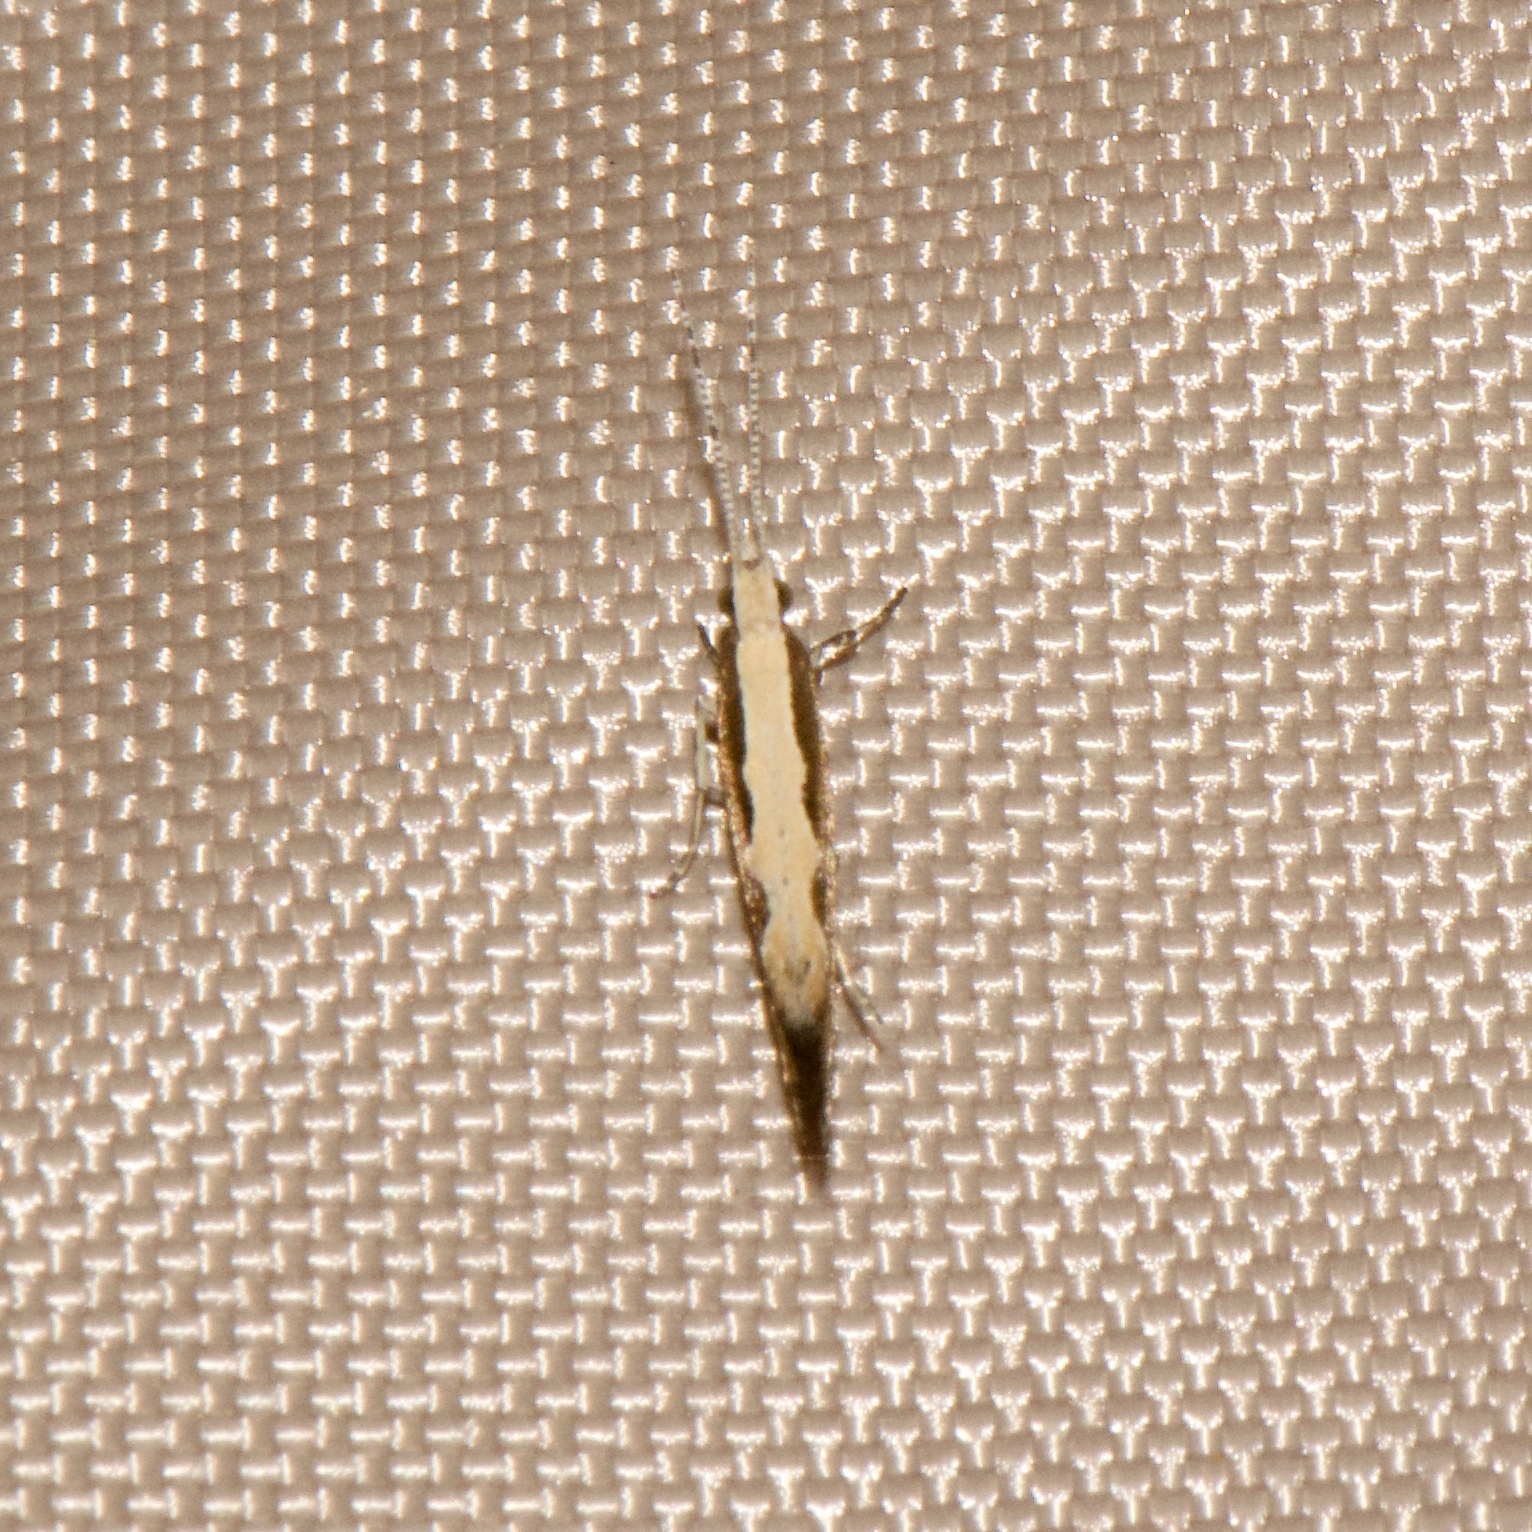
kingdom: Animalia
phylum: Arthropoda
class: Insecta
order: Lepidoptera
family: Plutellidae
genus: Plutella
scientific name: Plutella xylostella
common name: Diamond-back moth
